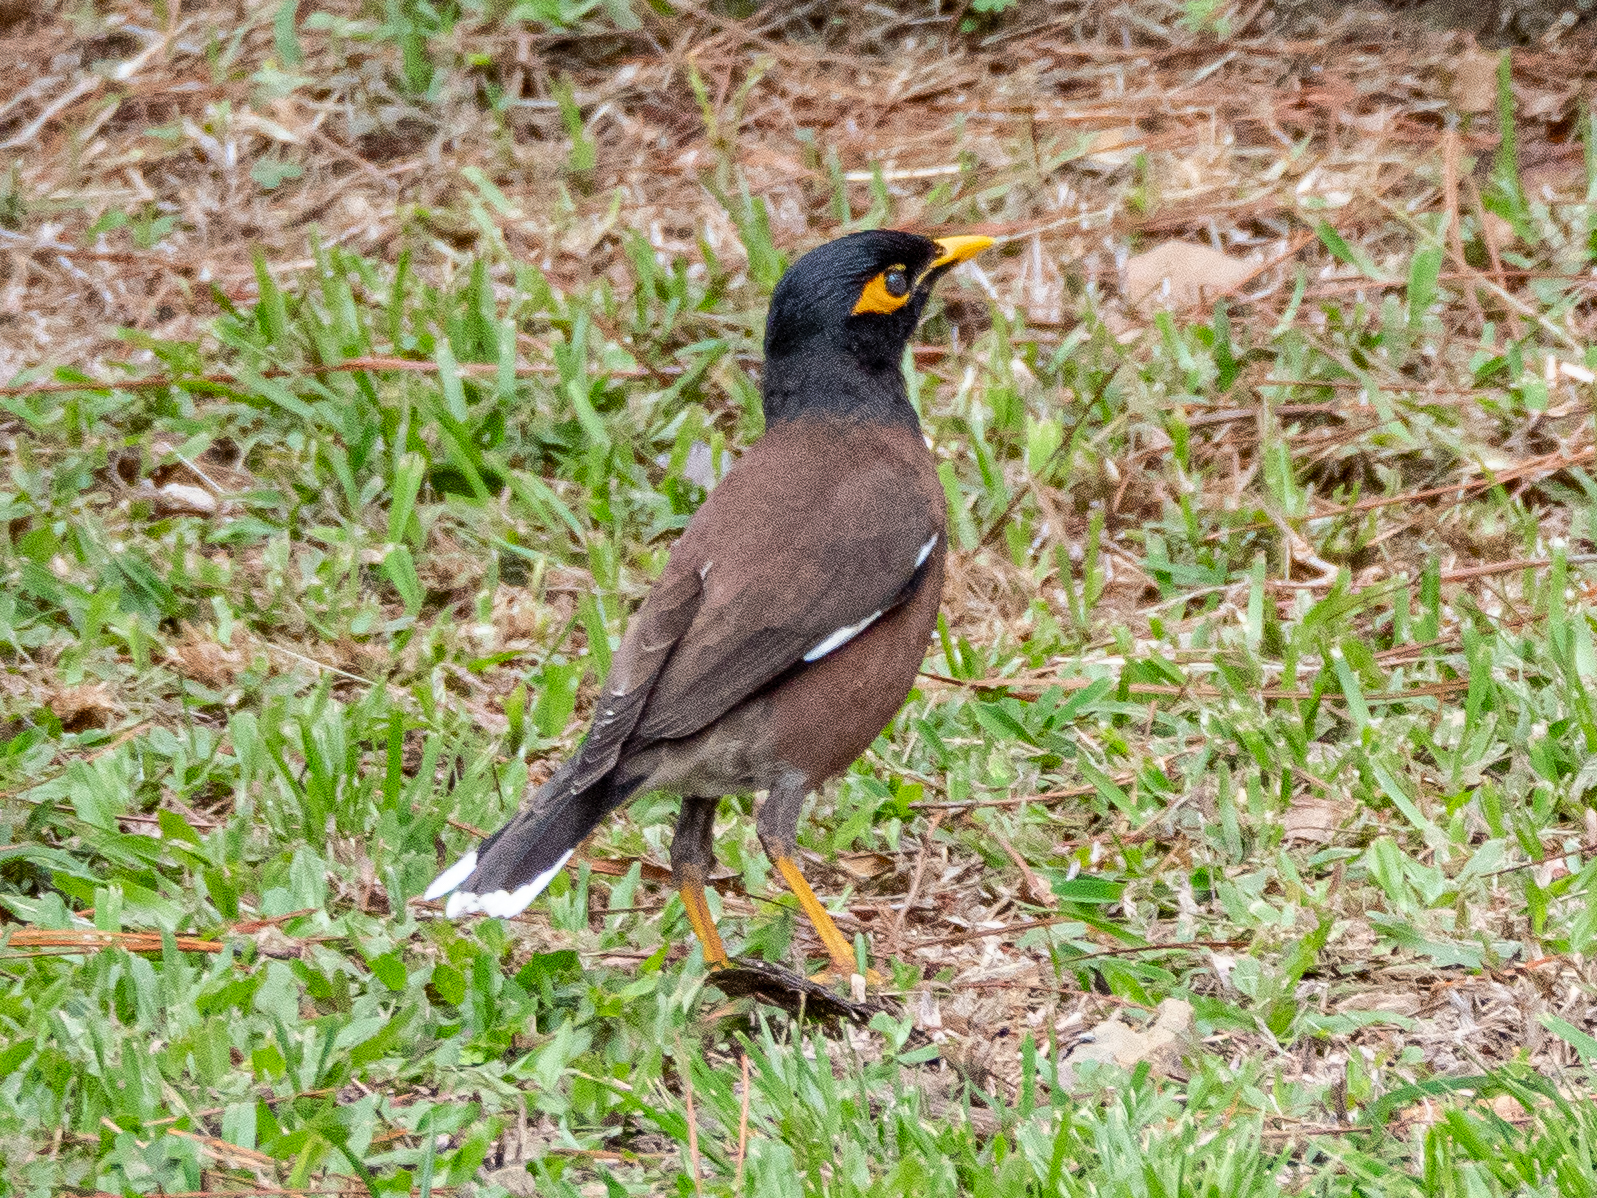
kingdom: Animalia
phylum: Chordata
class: Aves
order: Passeriformes
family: Sturnidae
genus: Acridotheres
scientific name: Acridotheres tristis
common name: Common myna
